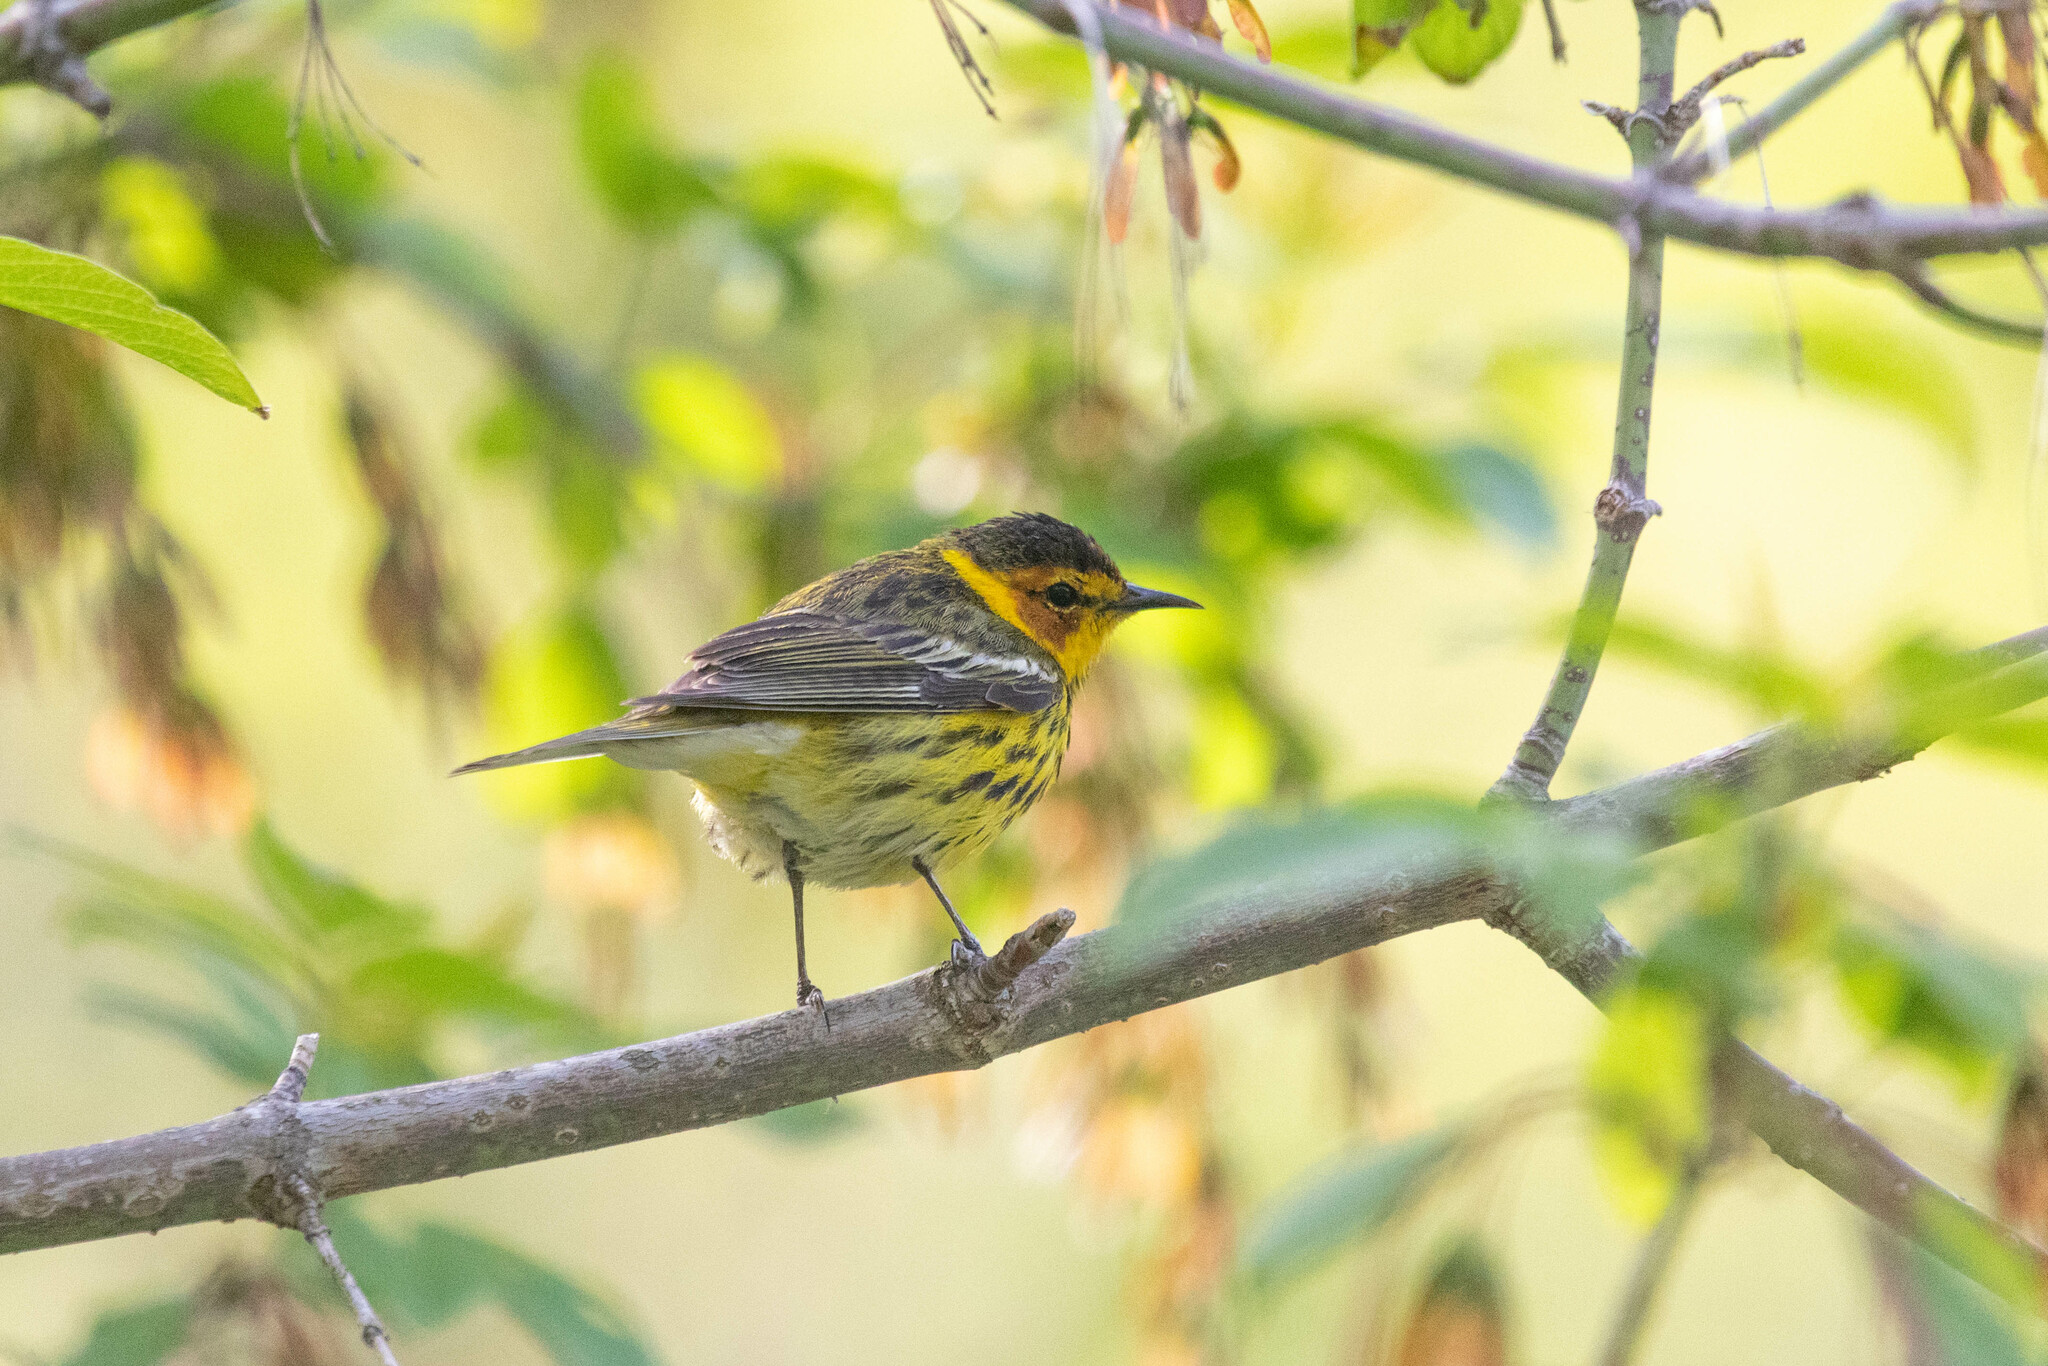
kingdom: Animalia
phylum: Chordata
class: Aves
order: Passeriformes
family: Parulidae
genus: Setophaga
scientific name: Setophaga tigrina
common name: Cape may warbler
